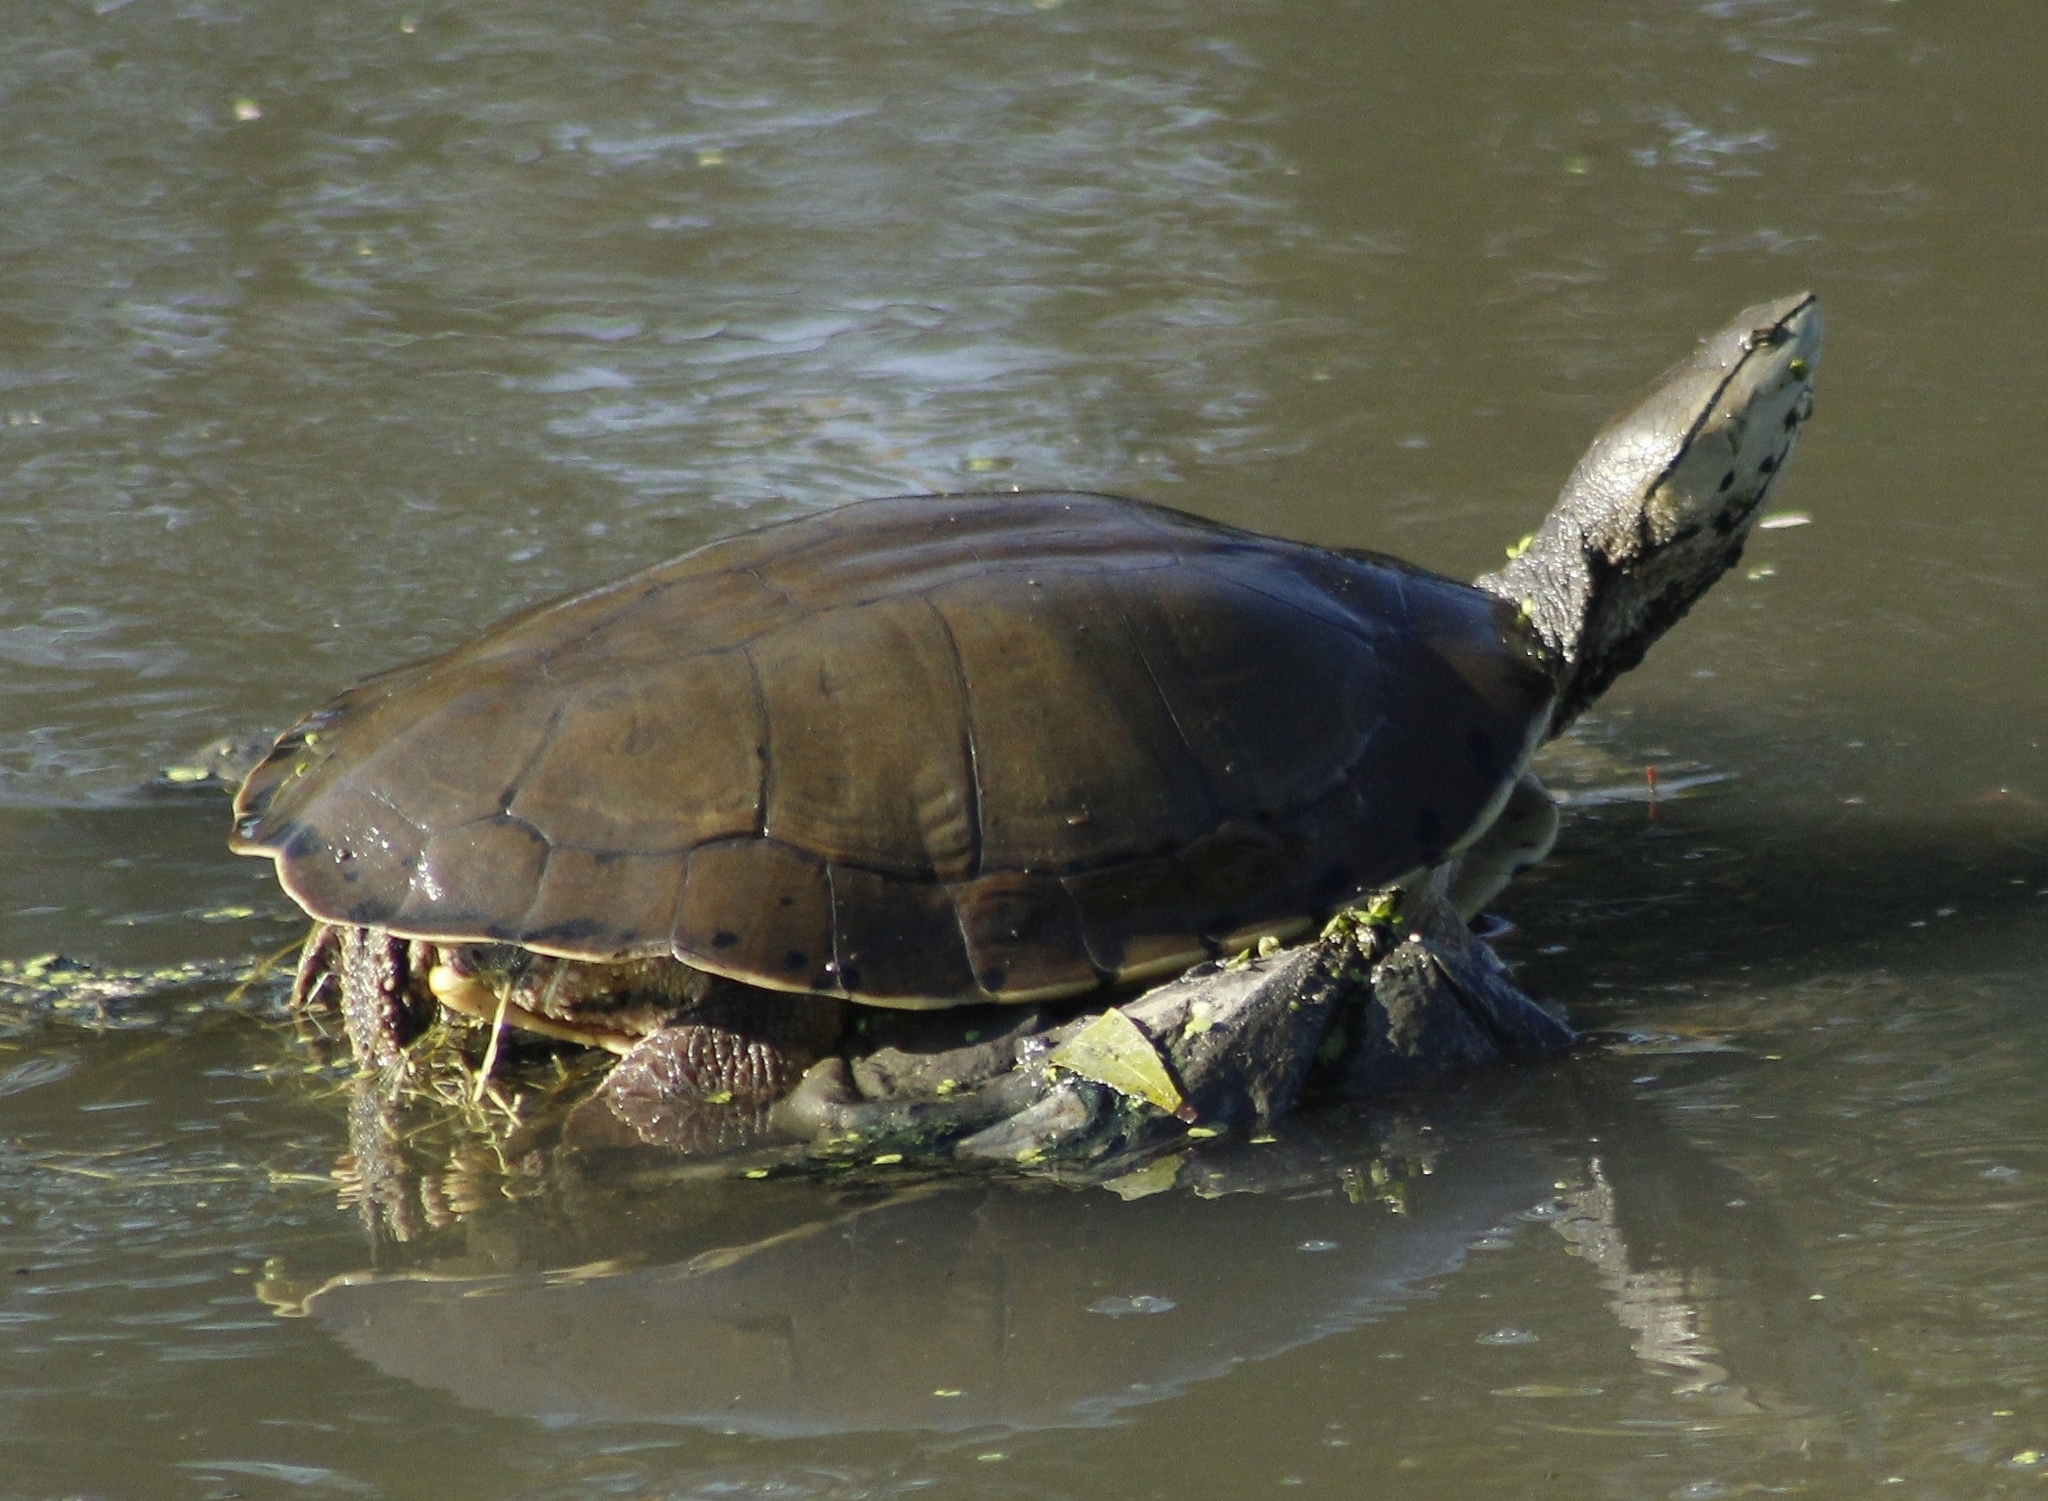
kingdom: Animalia
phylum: Chordata
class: Testudines
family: Chelidae
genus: Phrynops
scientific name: Phrynops hilarii
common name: Side-necked turtle of saint hillaire
